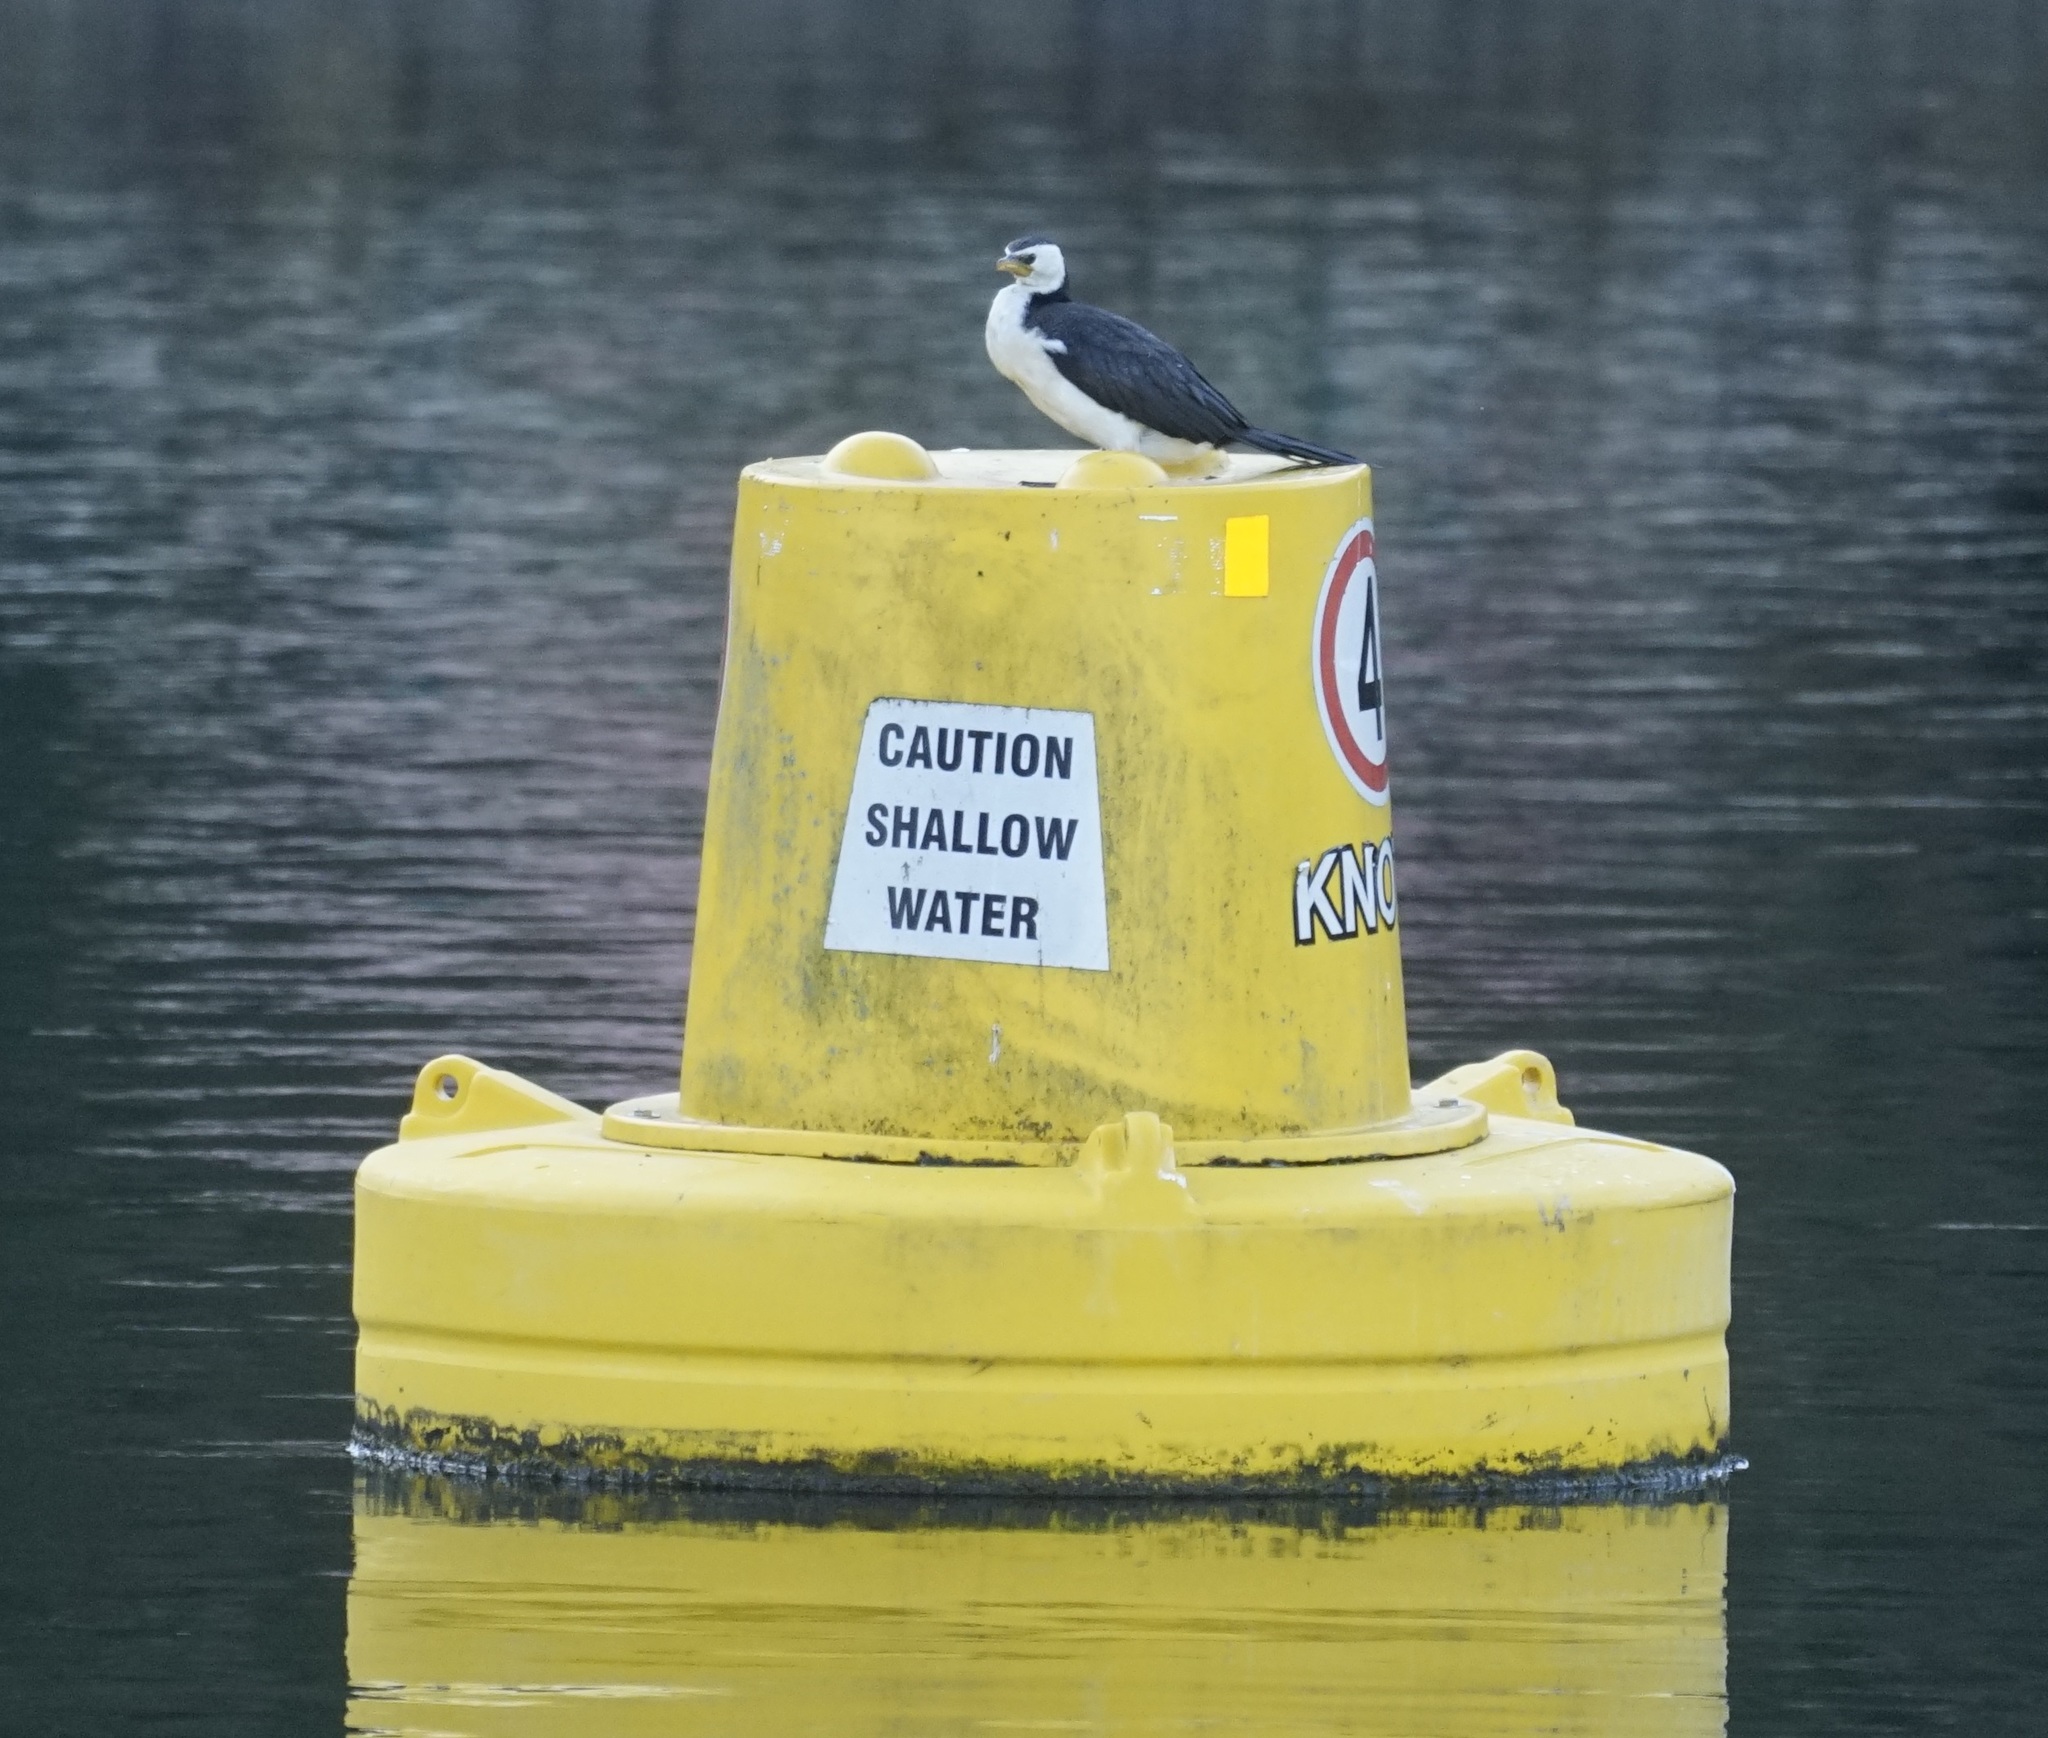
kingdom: Animalia
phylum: Chordata
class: Aves
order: Suliformes
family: Phalacrocoracidae
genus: Microcarbo
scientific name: Microcarbo melanoleucos
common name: Little pied cormorant
